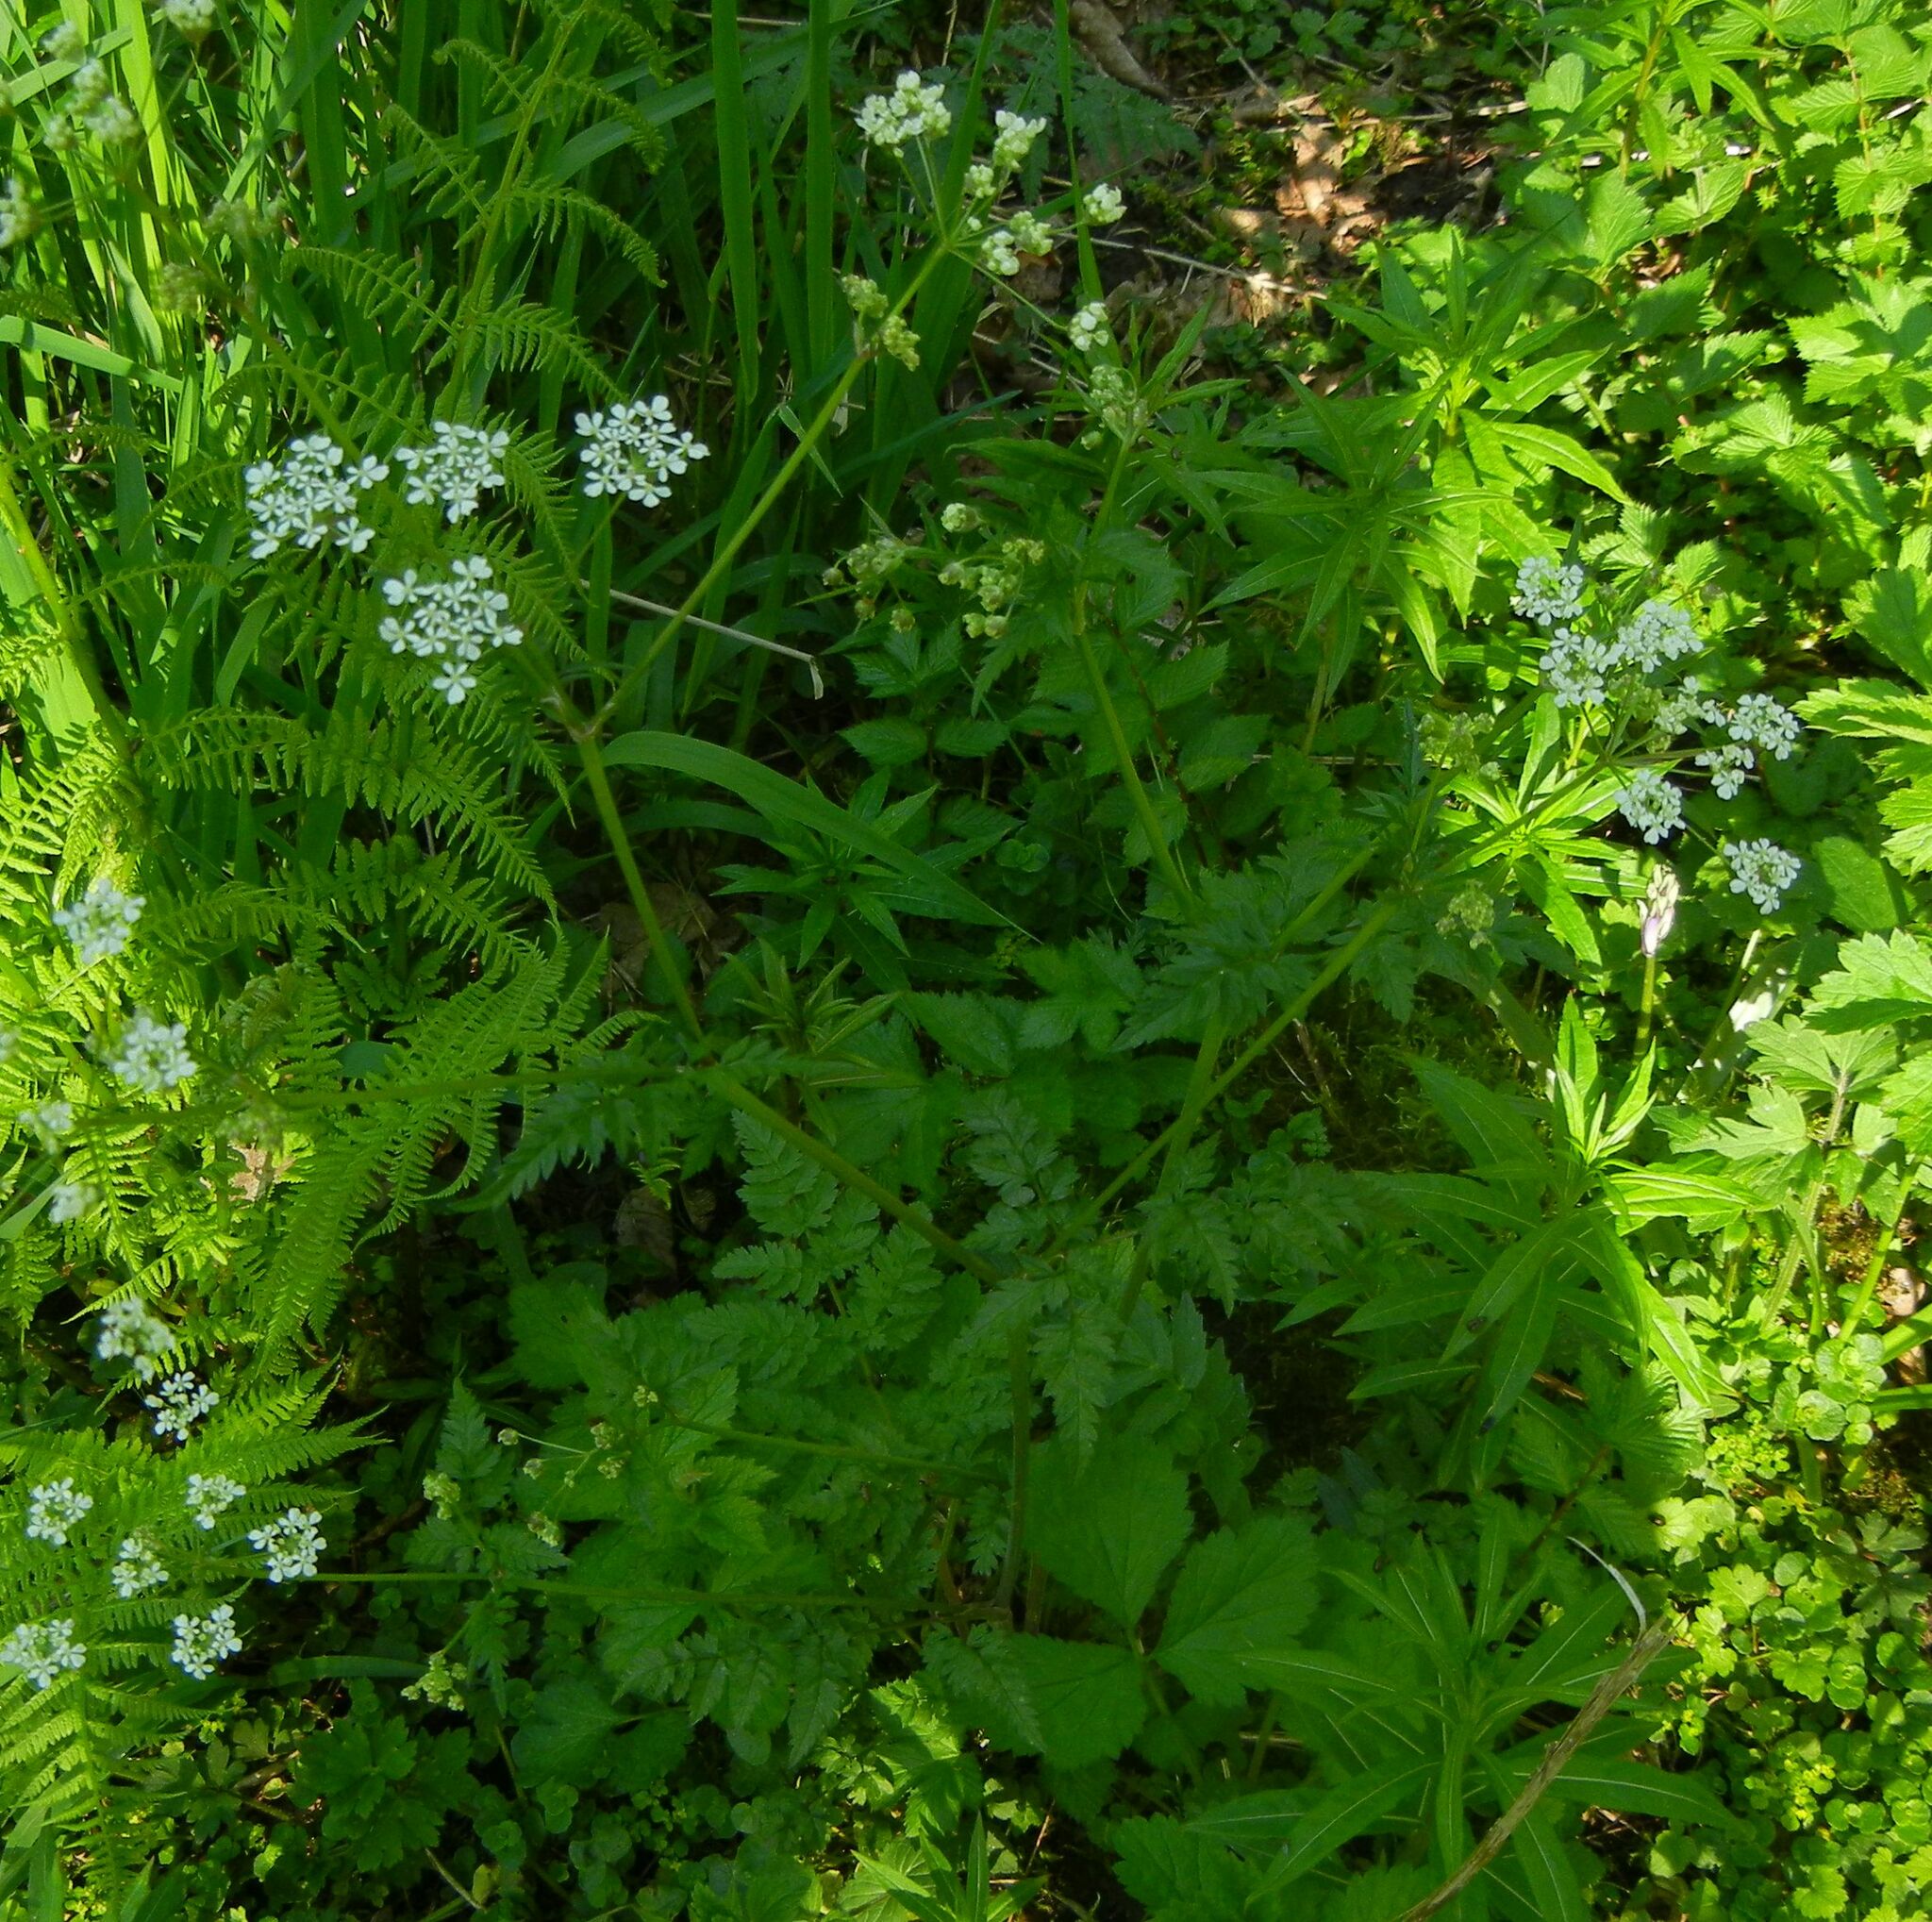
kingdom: Plantae
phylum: Tracheophyta
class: Magnoliopsida
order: Apiales
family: Apiaceae
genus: Anthriscus
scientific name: Anthriscus sylvestris
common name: Cow parsley
